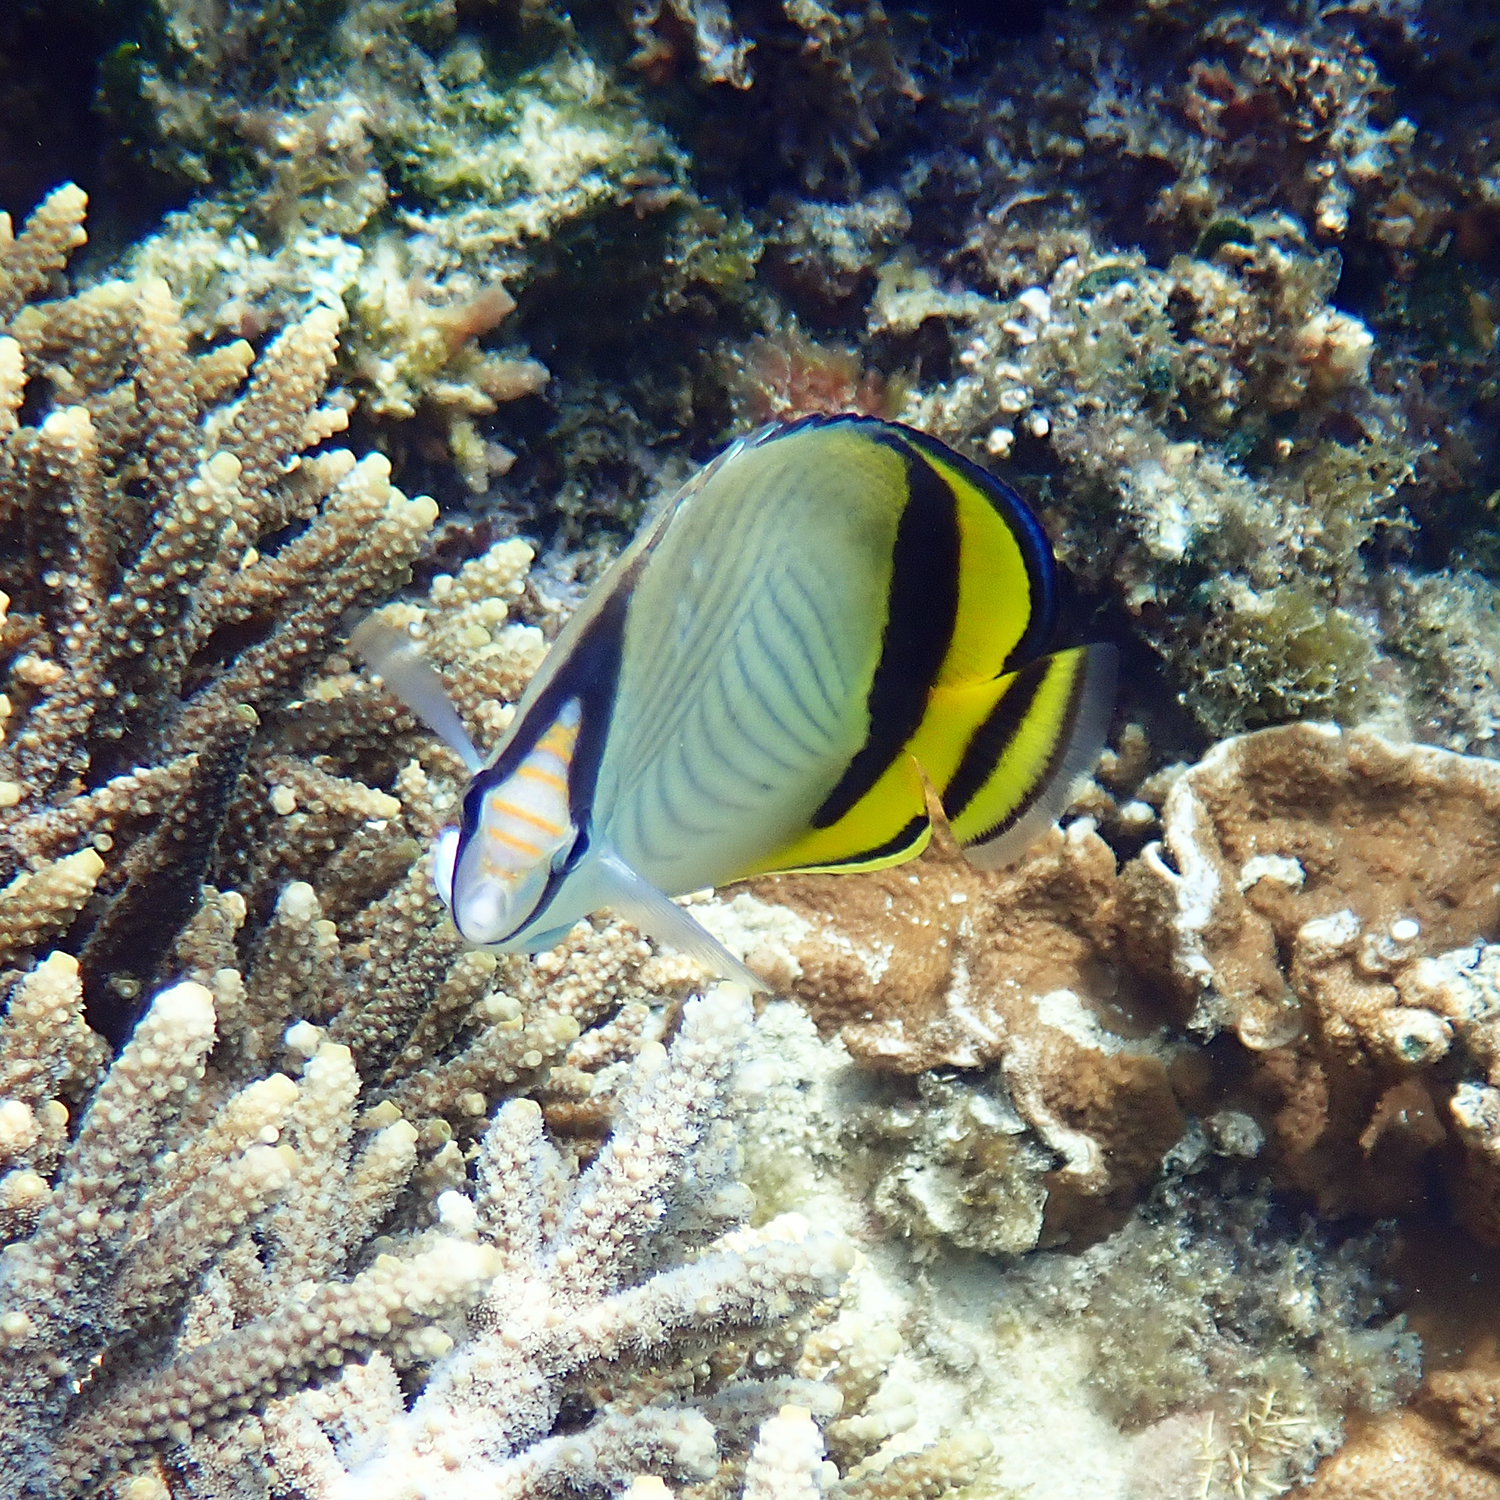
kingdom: Animalia
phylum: Chordata
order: Perciformes
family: Chaetodontidae
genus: Chaetodon
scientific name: Chaetodon vagabundus
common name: Vagabond butterflyfish
